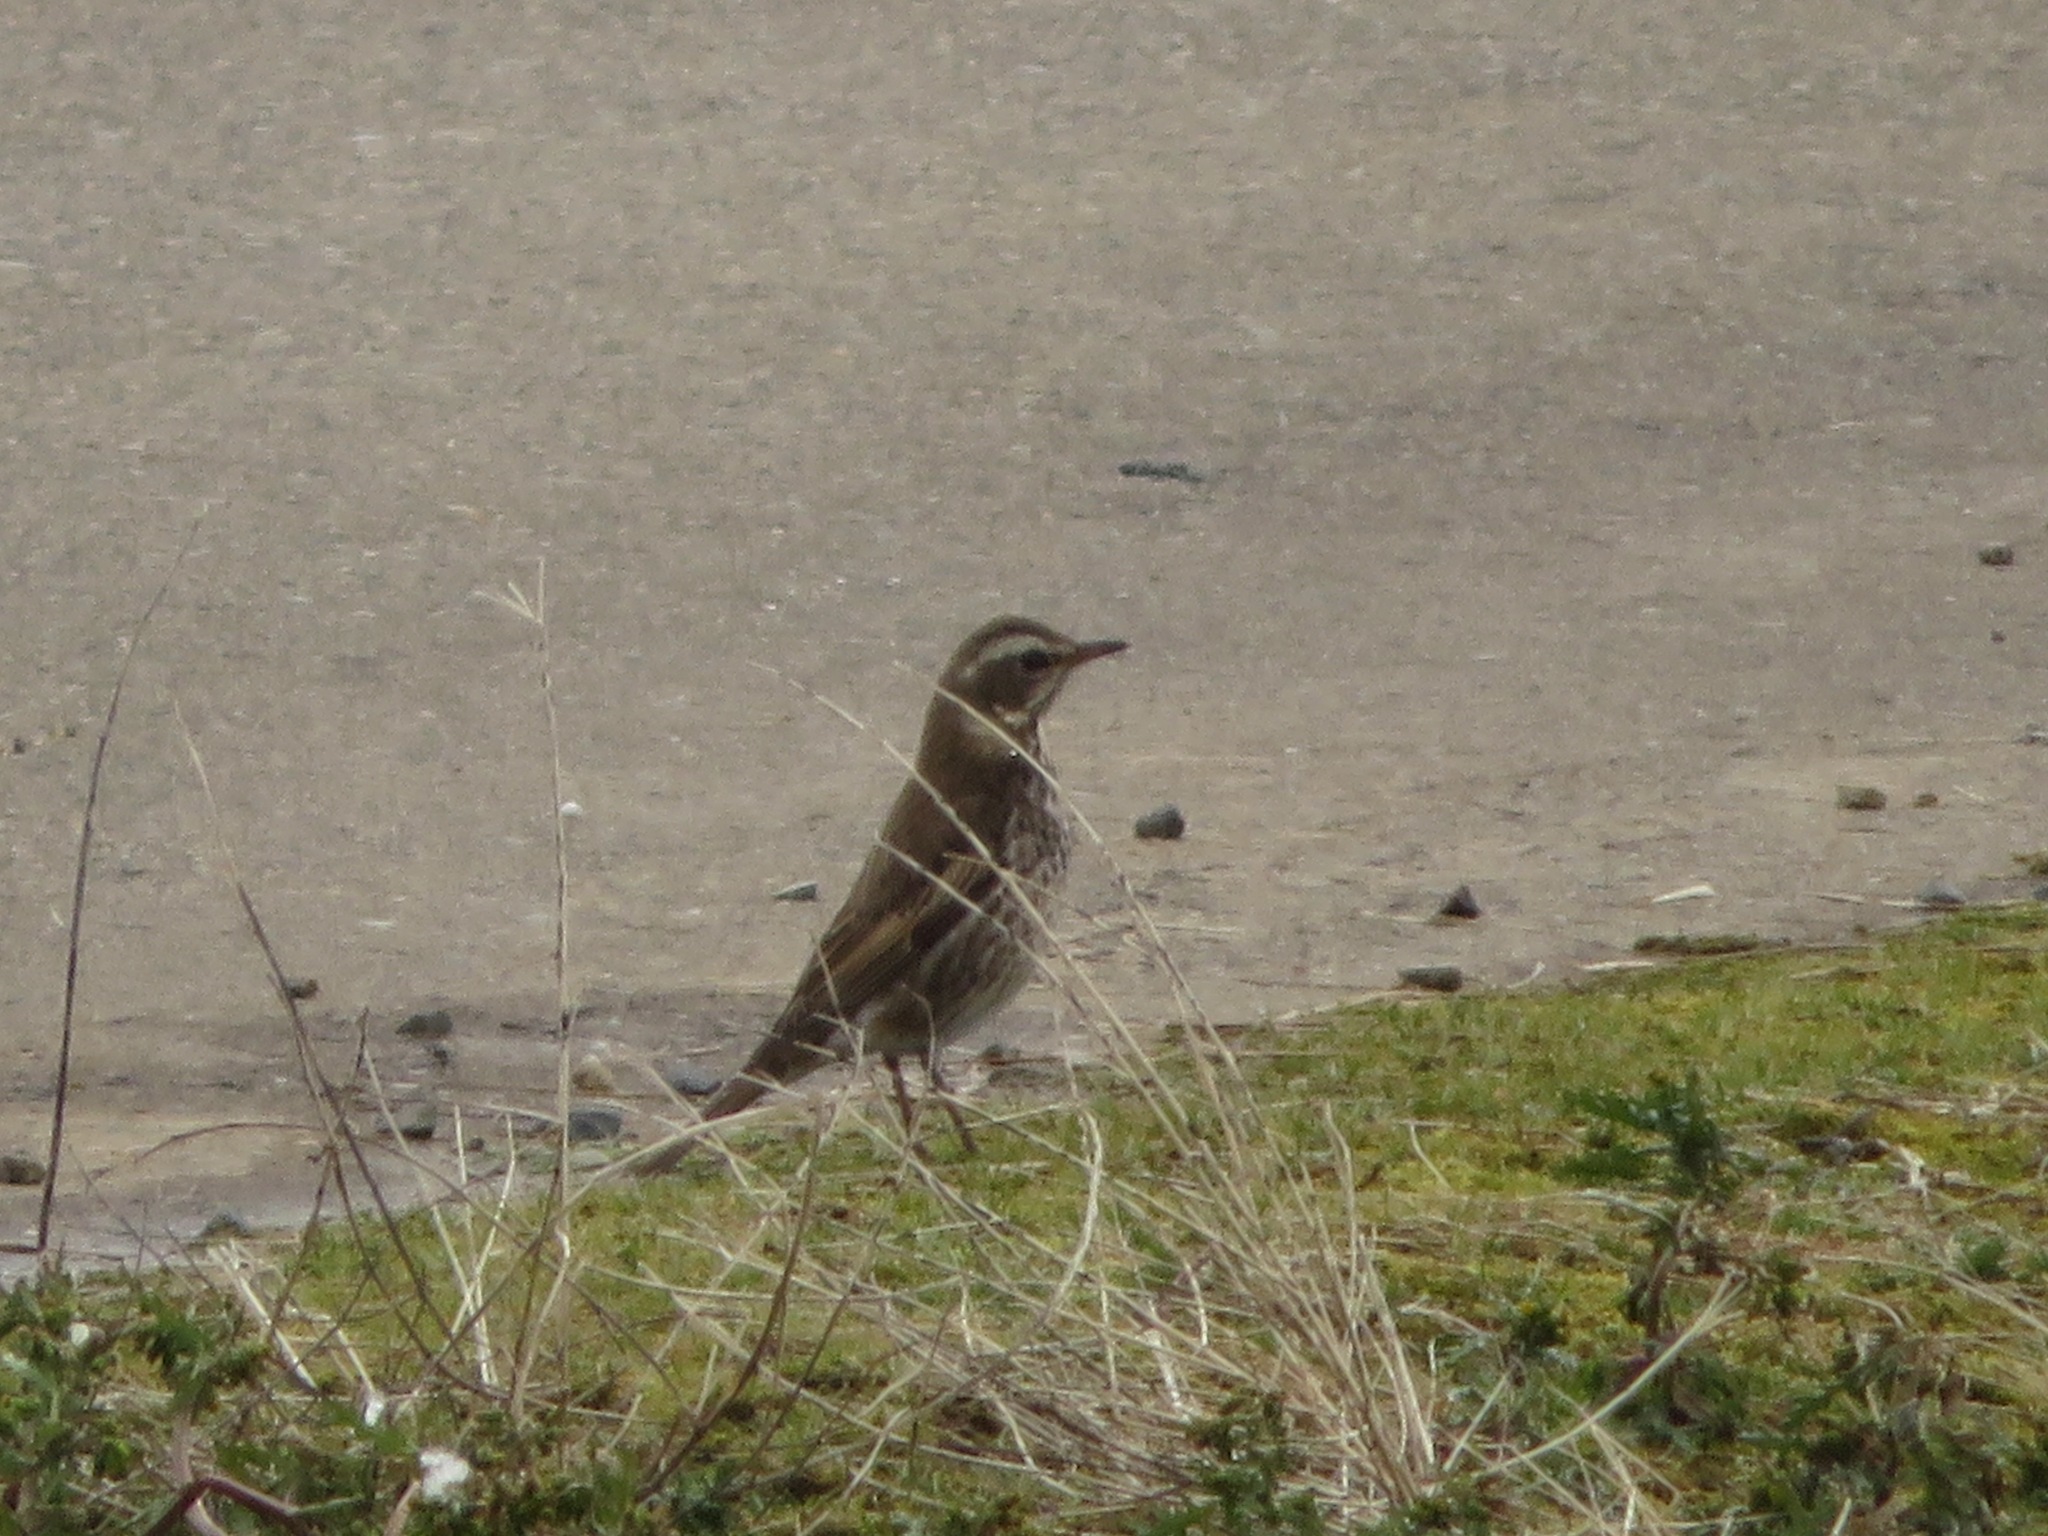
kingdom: Animalia
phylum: Chordata
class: Aves
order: Passeriformes
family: Turdidae
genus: Turdus
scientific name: Turdus eunomus
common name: Dusky thrush
